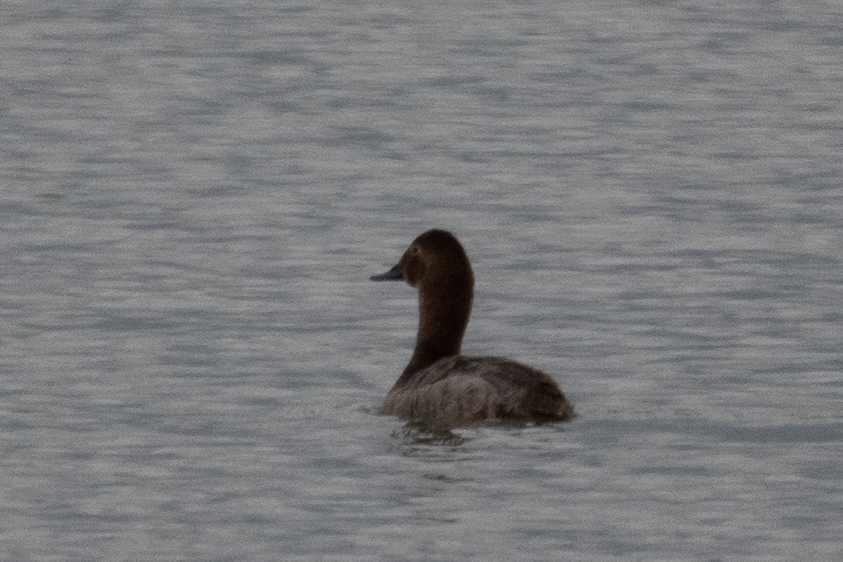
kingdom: Animalia
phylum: Chordata
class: Aves
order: Anseriformes
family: Anatidae
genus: Aythya
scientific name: Aythya valisineria
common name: Canvasback
